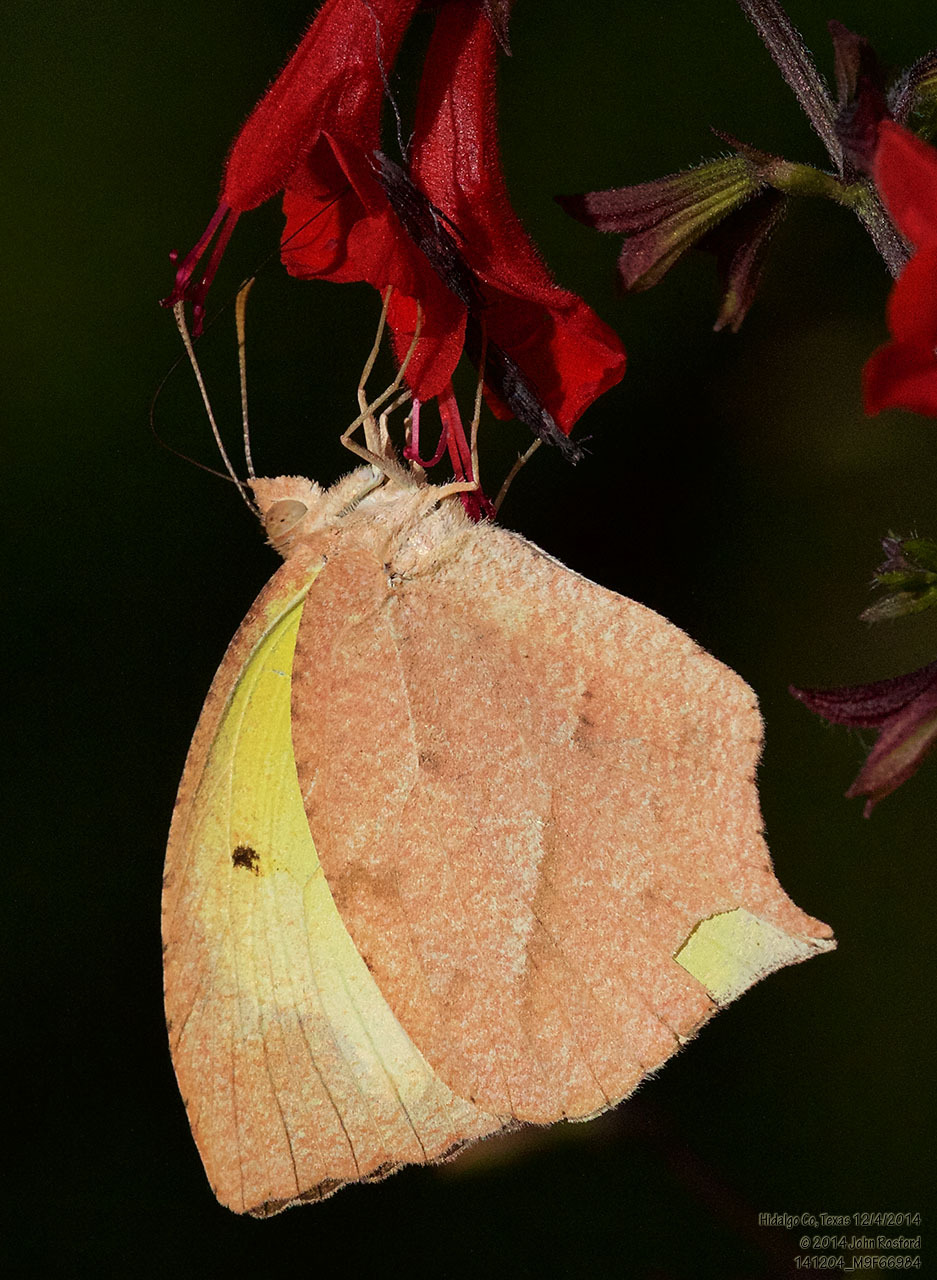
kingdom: Animalia
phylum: Arthropoda
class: Insecta
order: Lepidoptera
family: Pieridae
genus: Abaeis
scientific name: Abaeis mexicana
